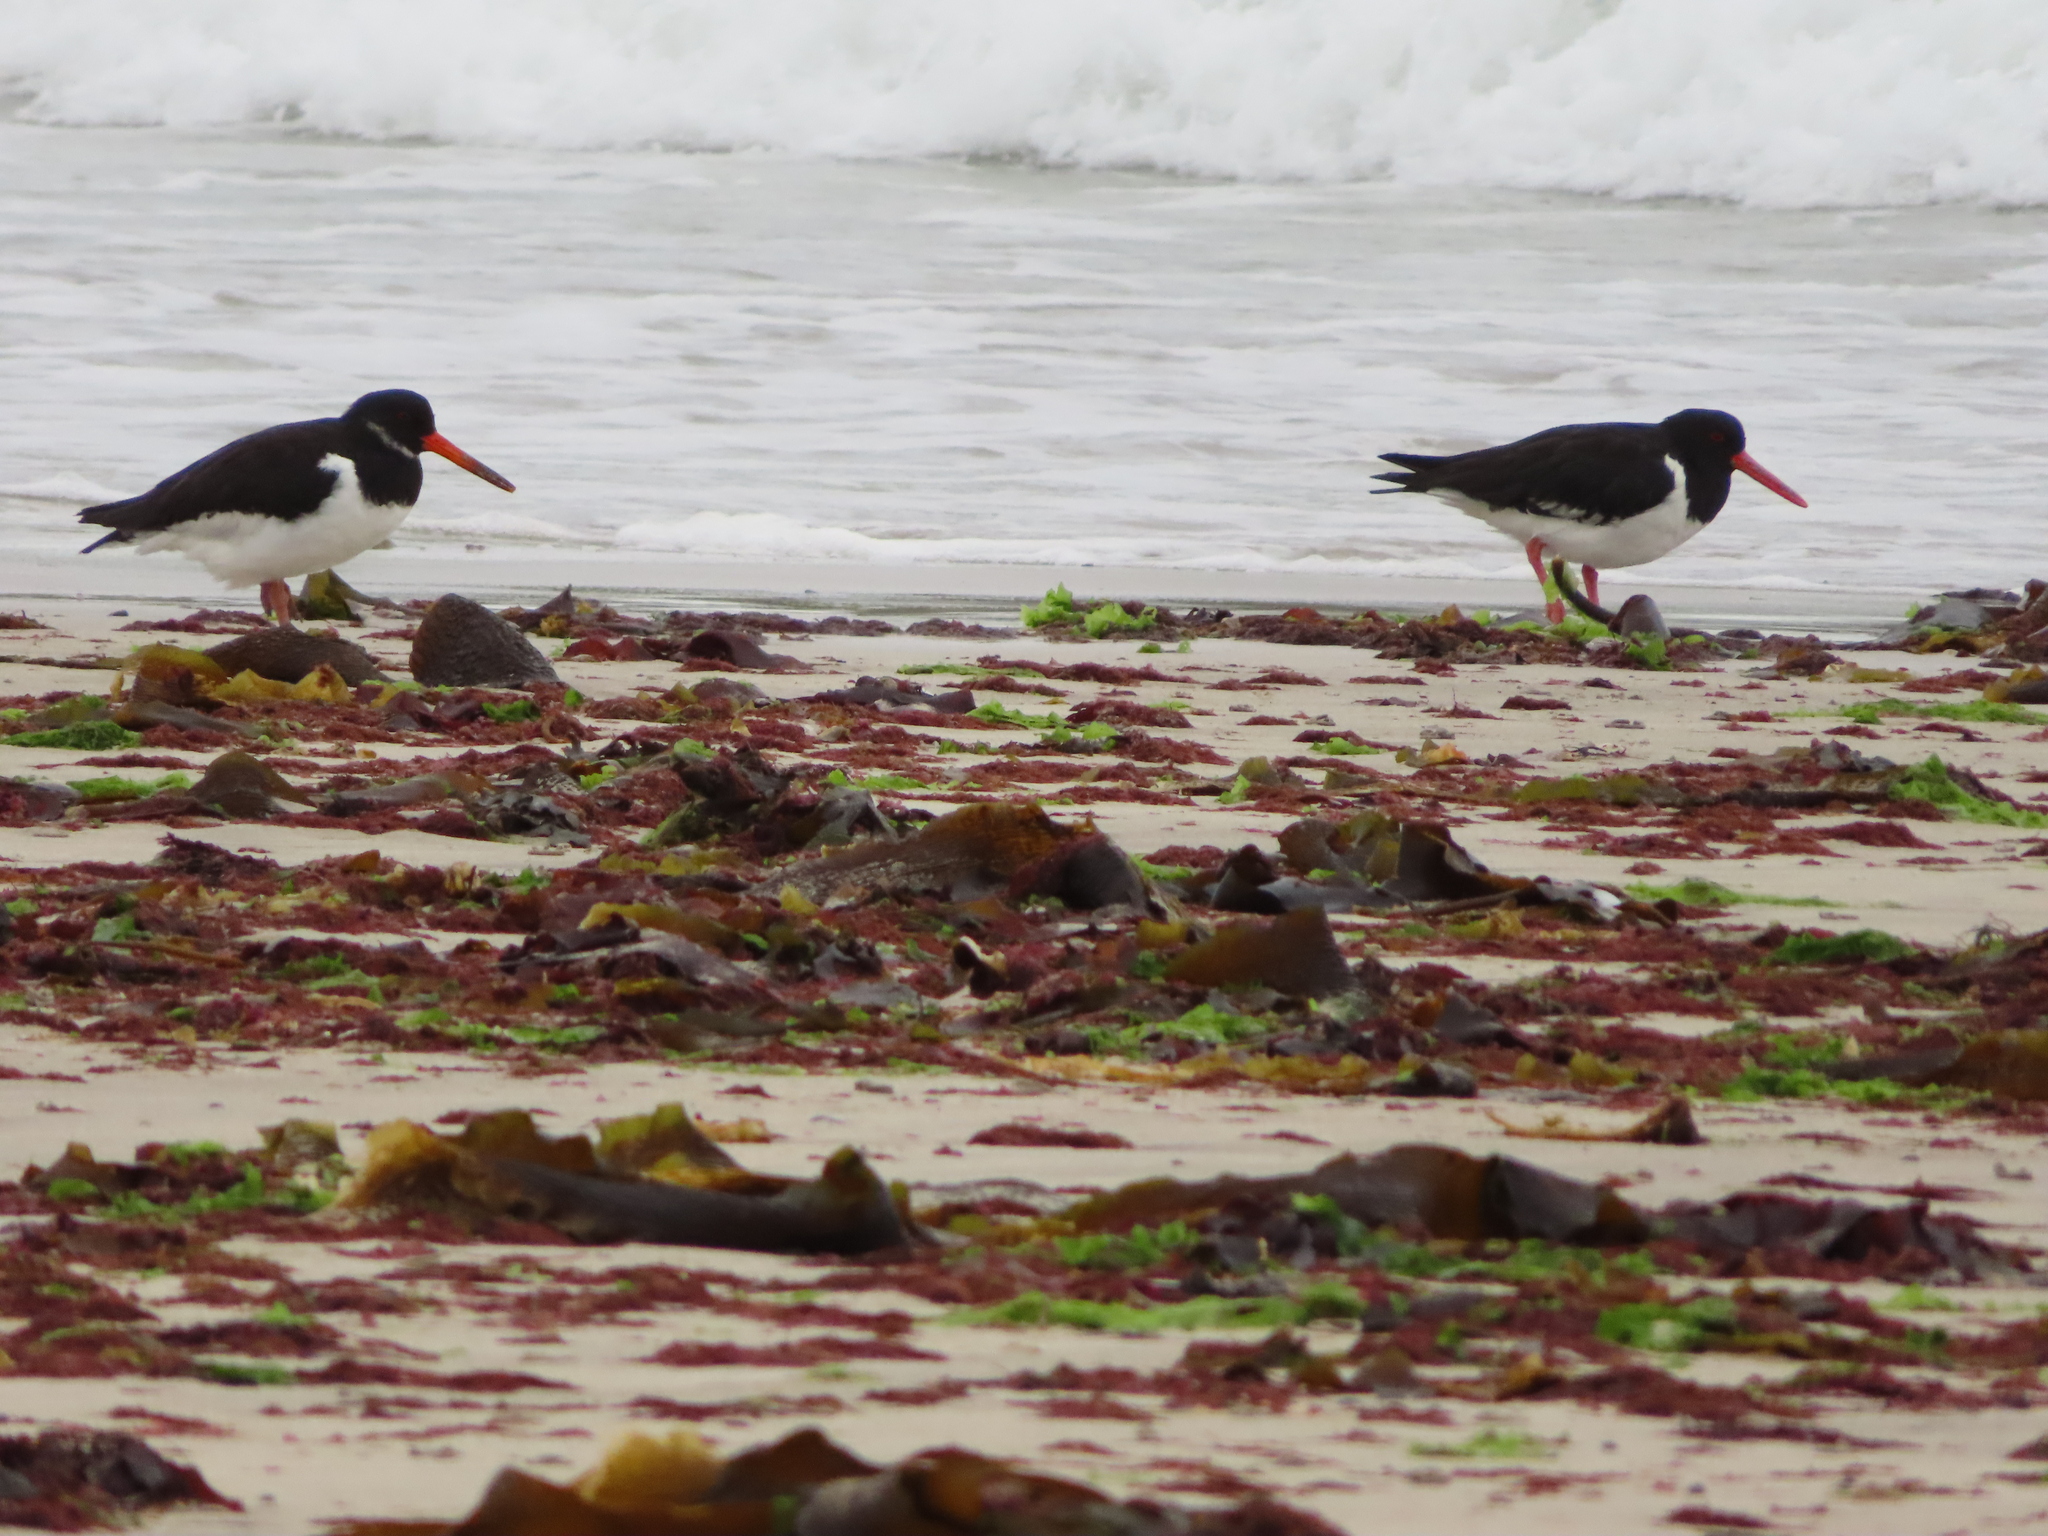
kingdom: Animalia
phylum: Chordata
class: Aves
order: Charadriiformes
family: Haematopodidae
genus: Haematopus
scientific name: Haematopus ostralegus
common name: Eurasian oystercatcher
